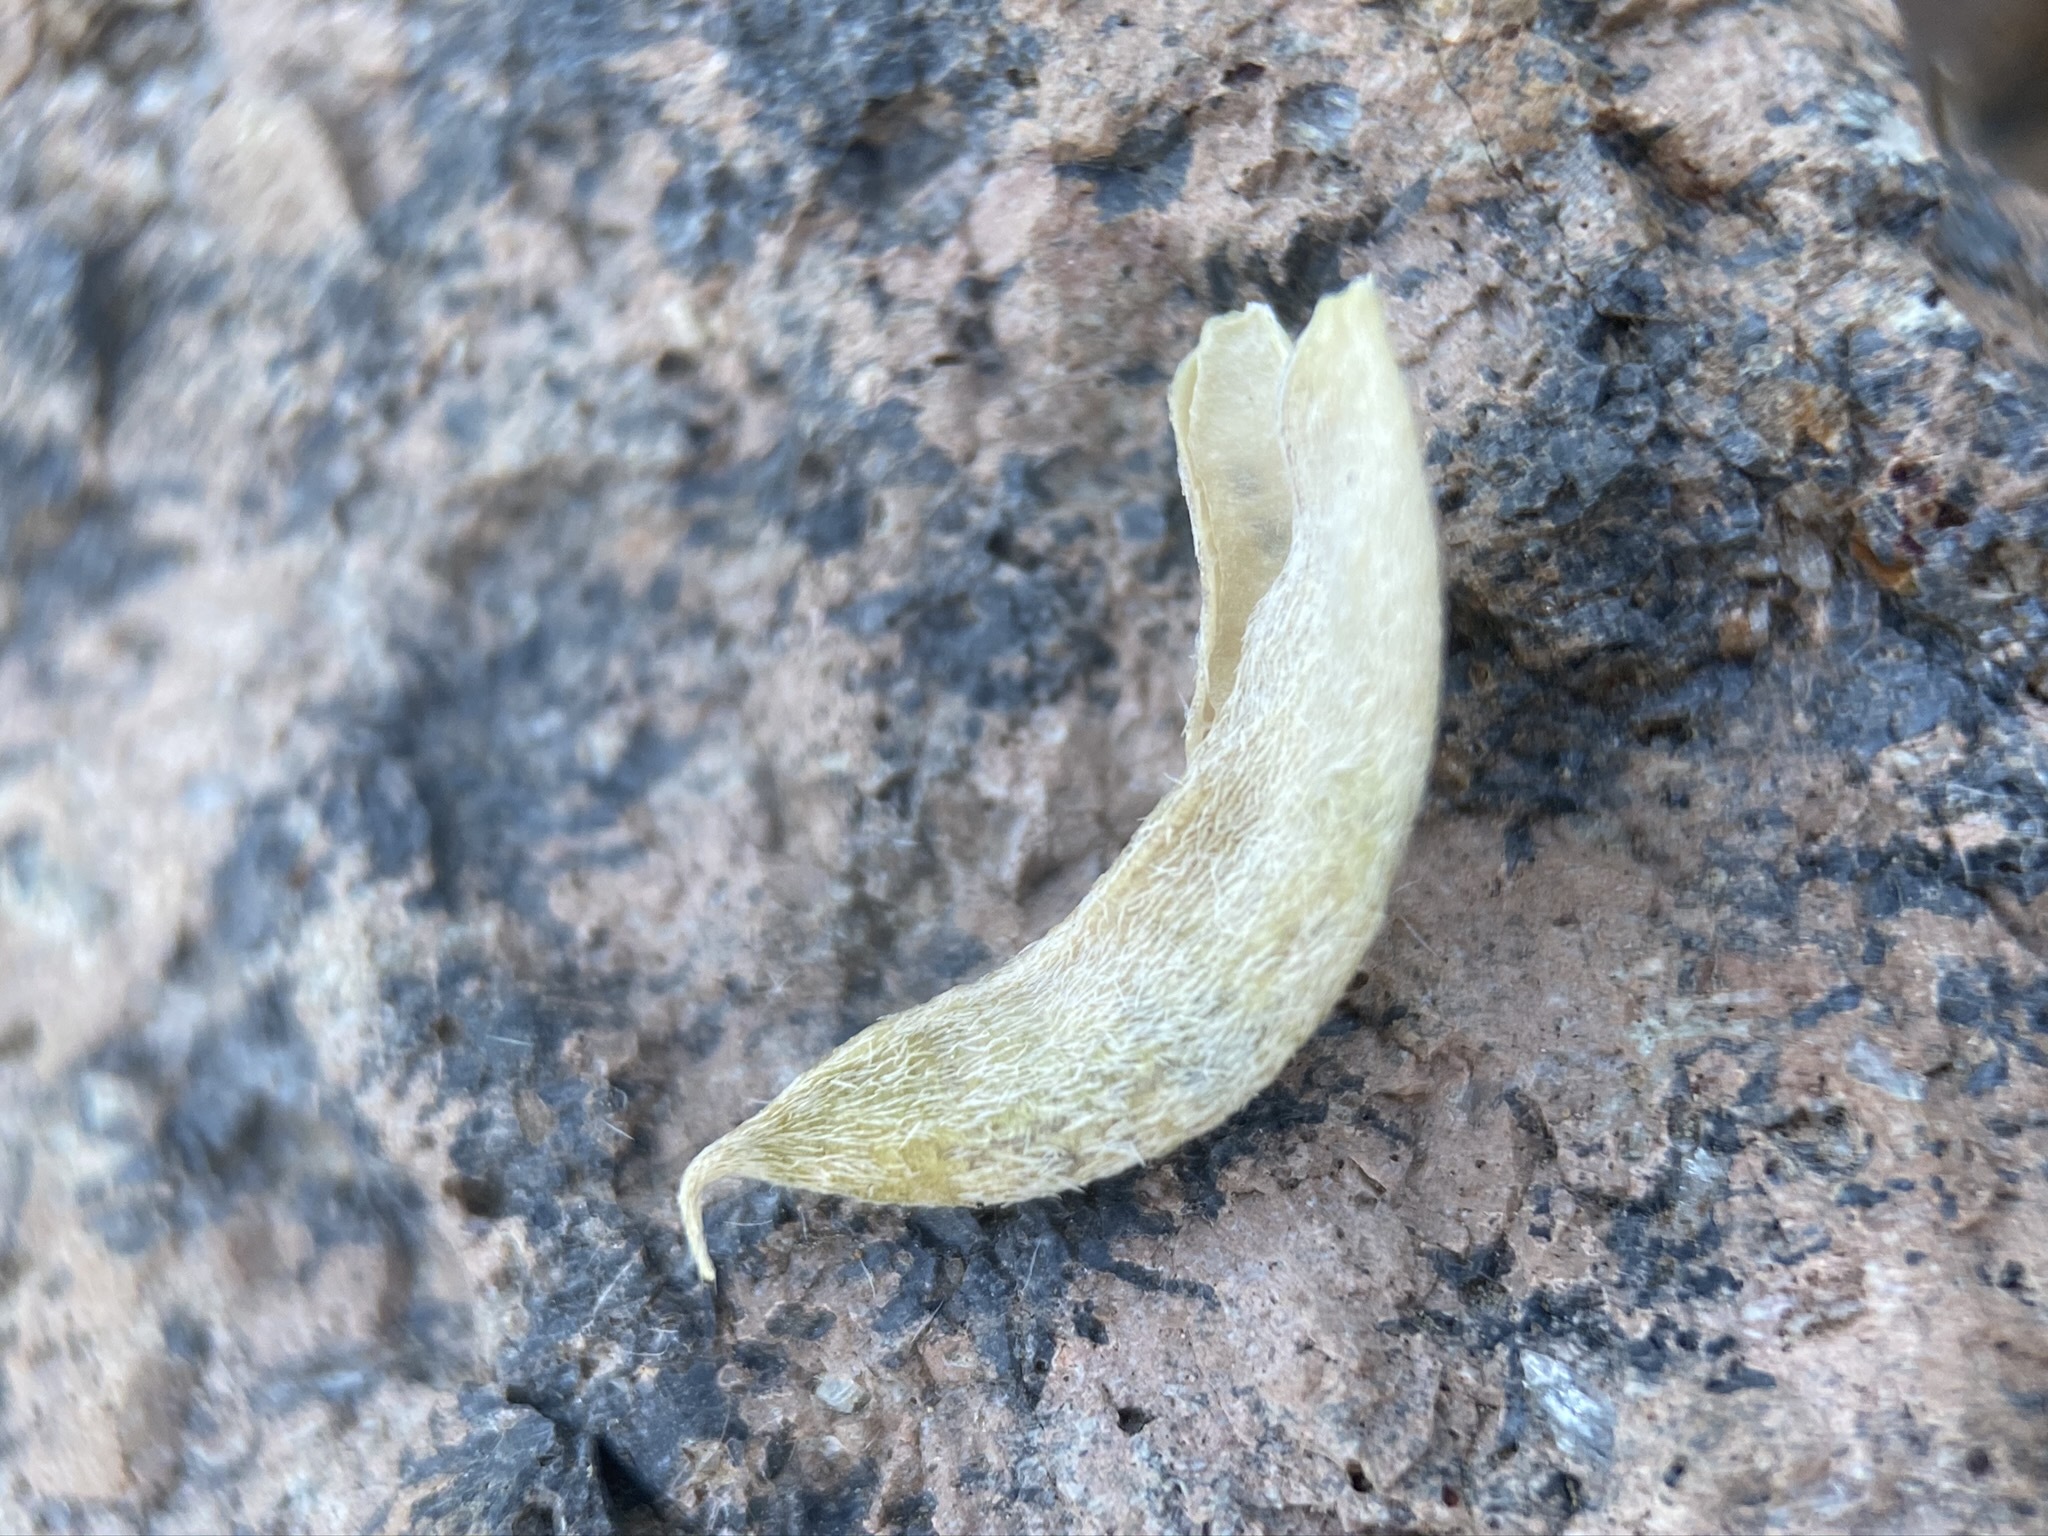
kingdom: Plantae
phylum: Tracheophyta
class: Magnoliopsida
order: Fabales
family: Fabaceae
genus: Astragalus
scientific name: Astragalus calycosus
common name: King's milkvetch
